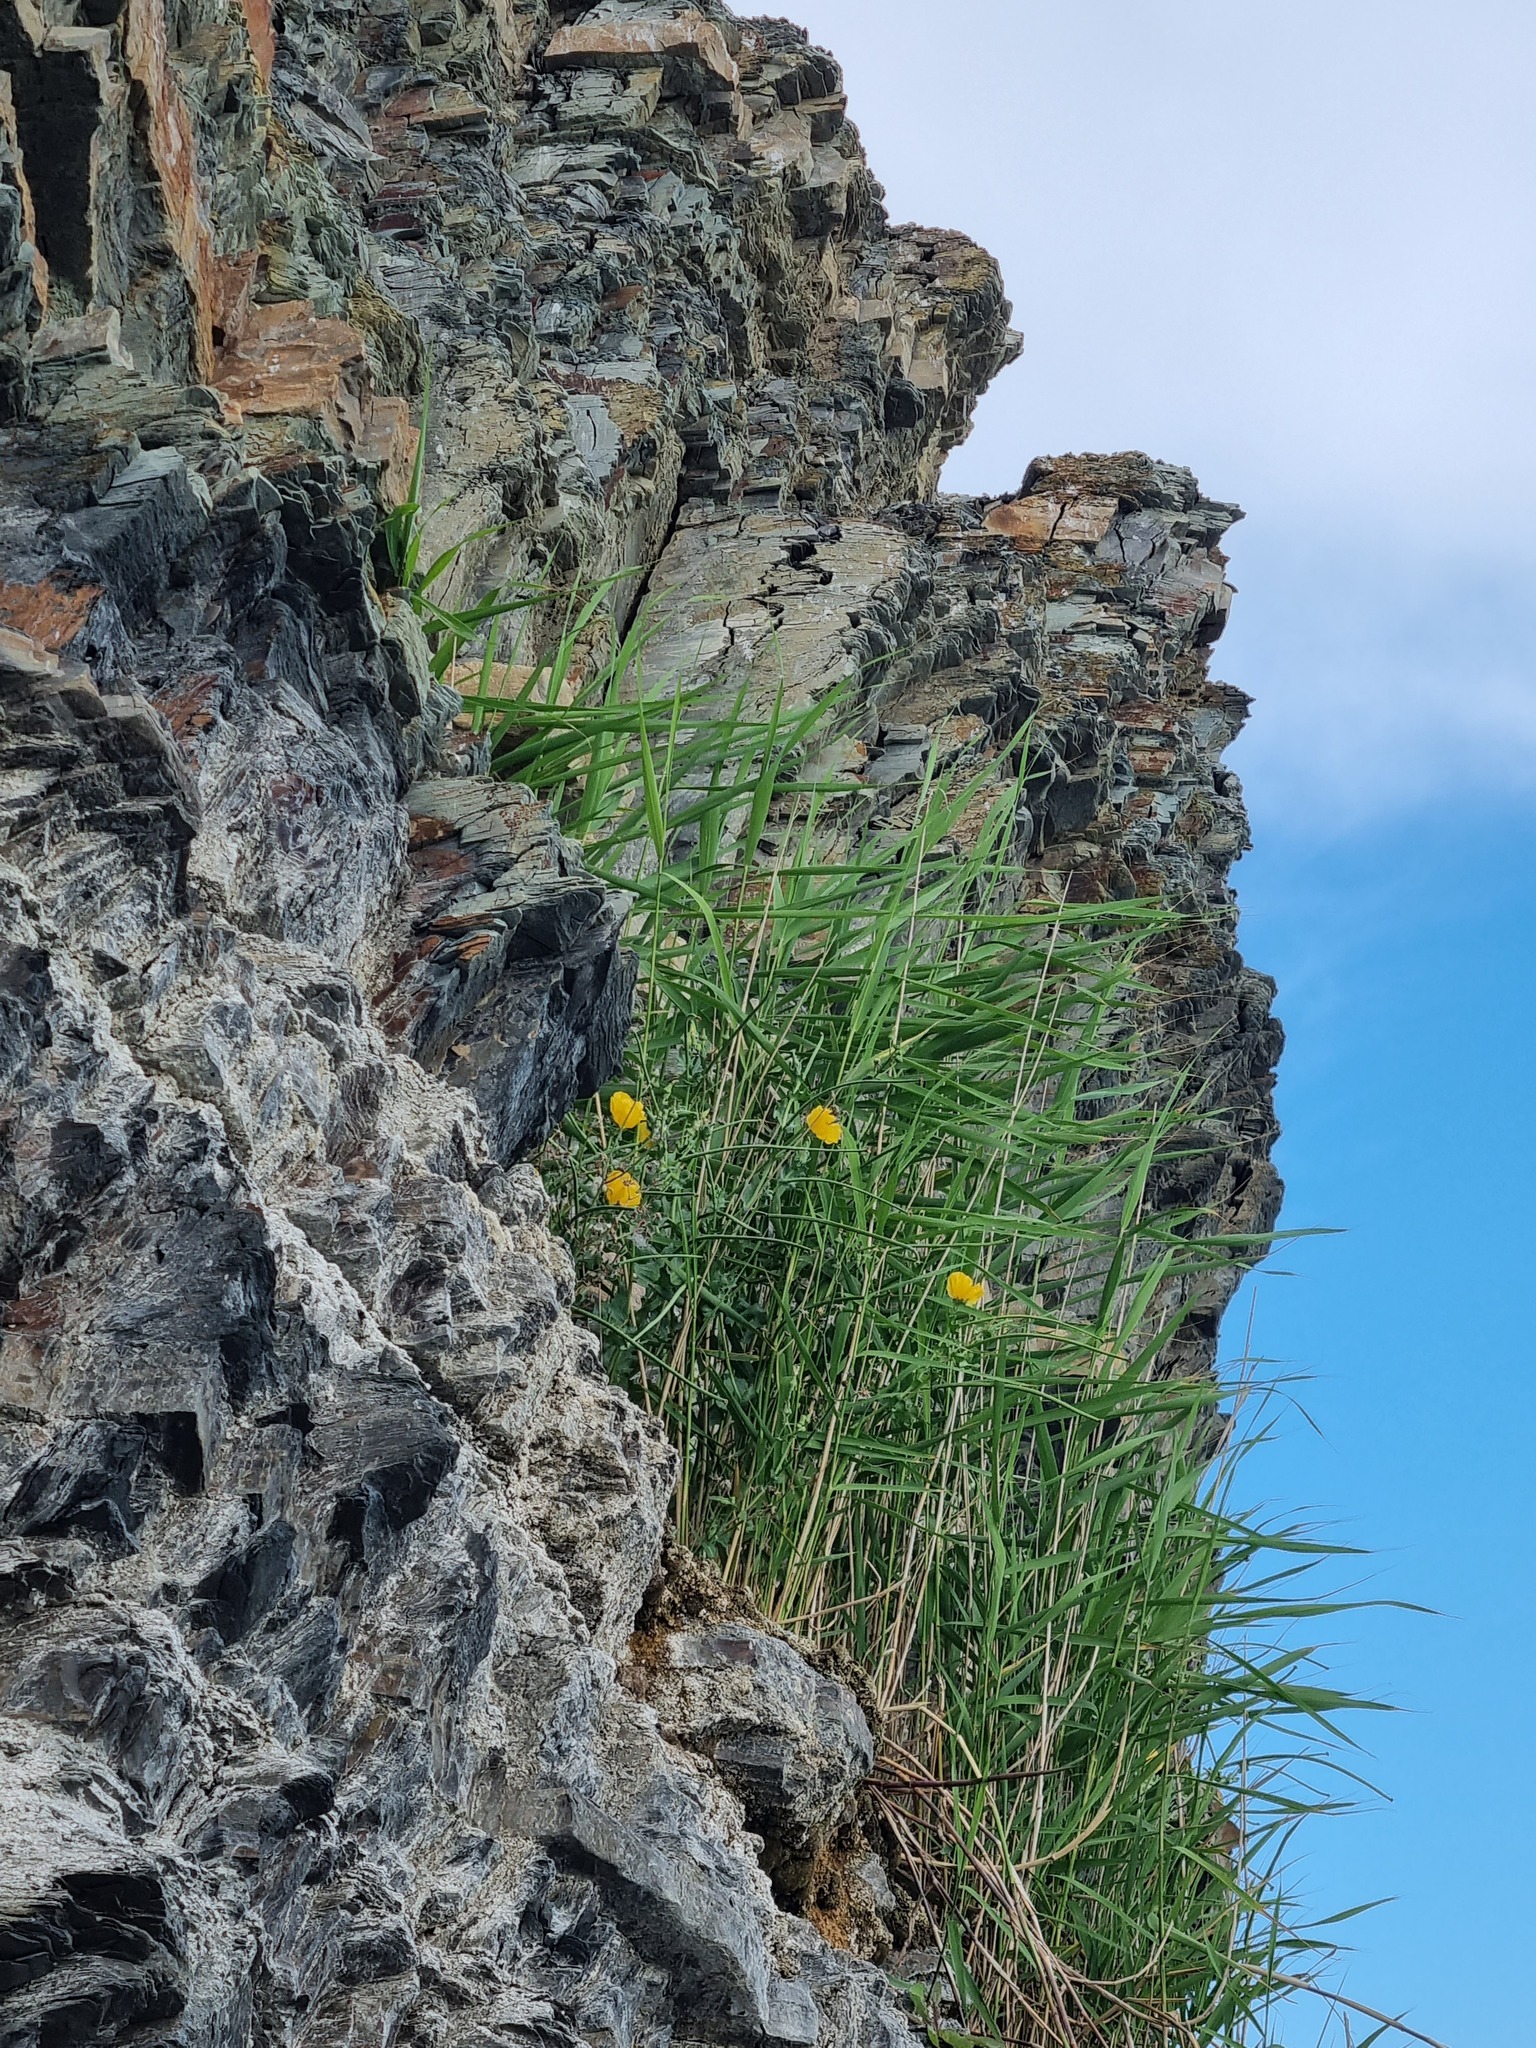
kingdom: Plantae
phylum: Tracheophyta
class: Liliopsida
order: Poales
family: Poaceae
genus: Phragmites
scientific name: Phragmites australis
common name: Common reed
